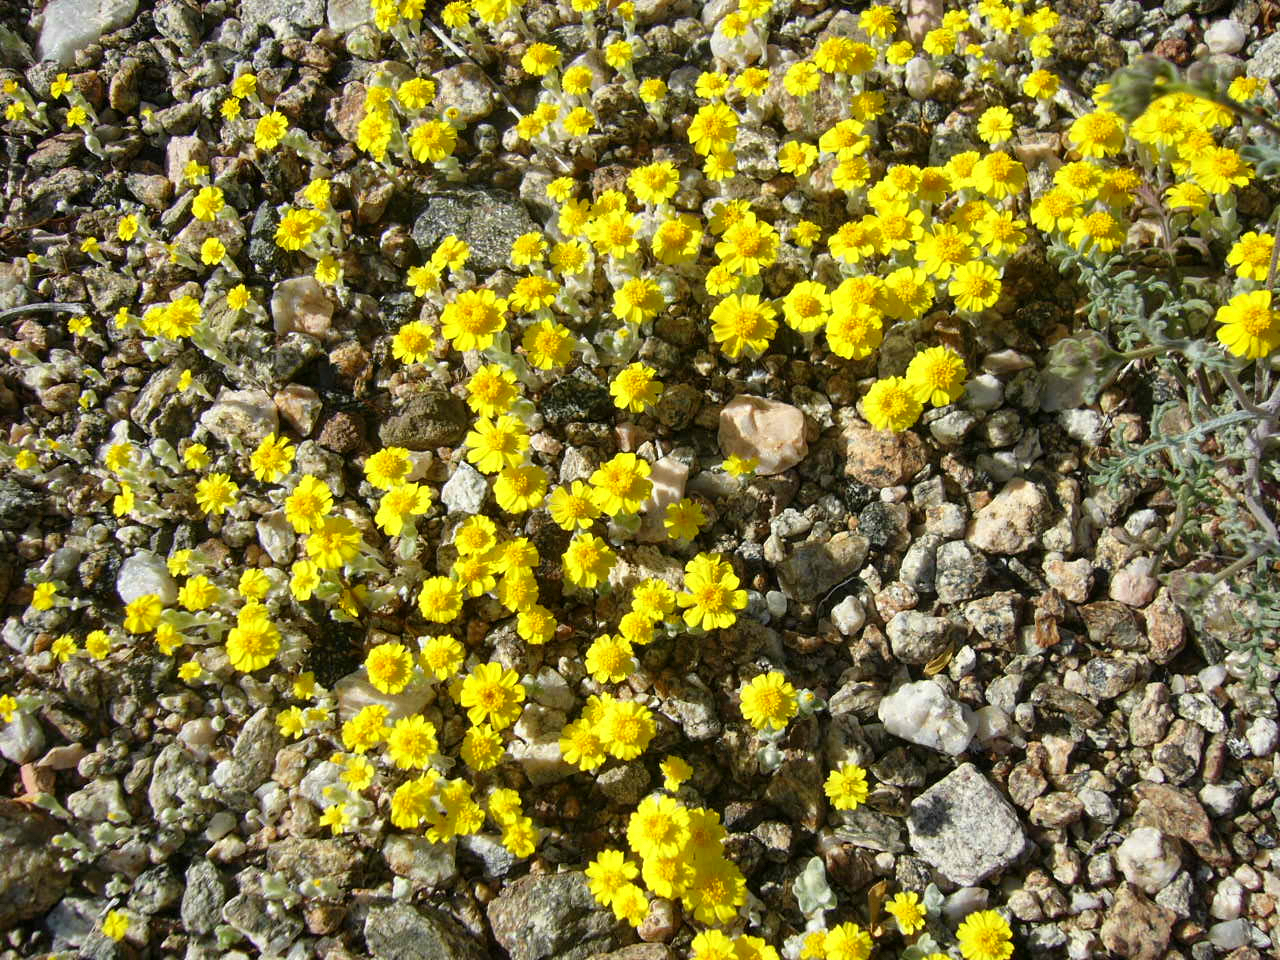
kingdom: Plantae
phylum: Tracheophyta
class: Magnoliopsida
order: Asterales
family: Asteraceae
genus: Eriophyllum
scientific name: Eriophyllum wallacei
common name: Wallace's woolly daisy
